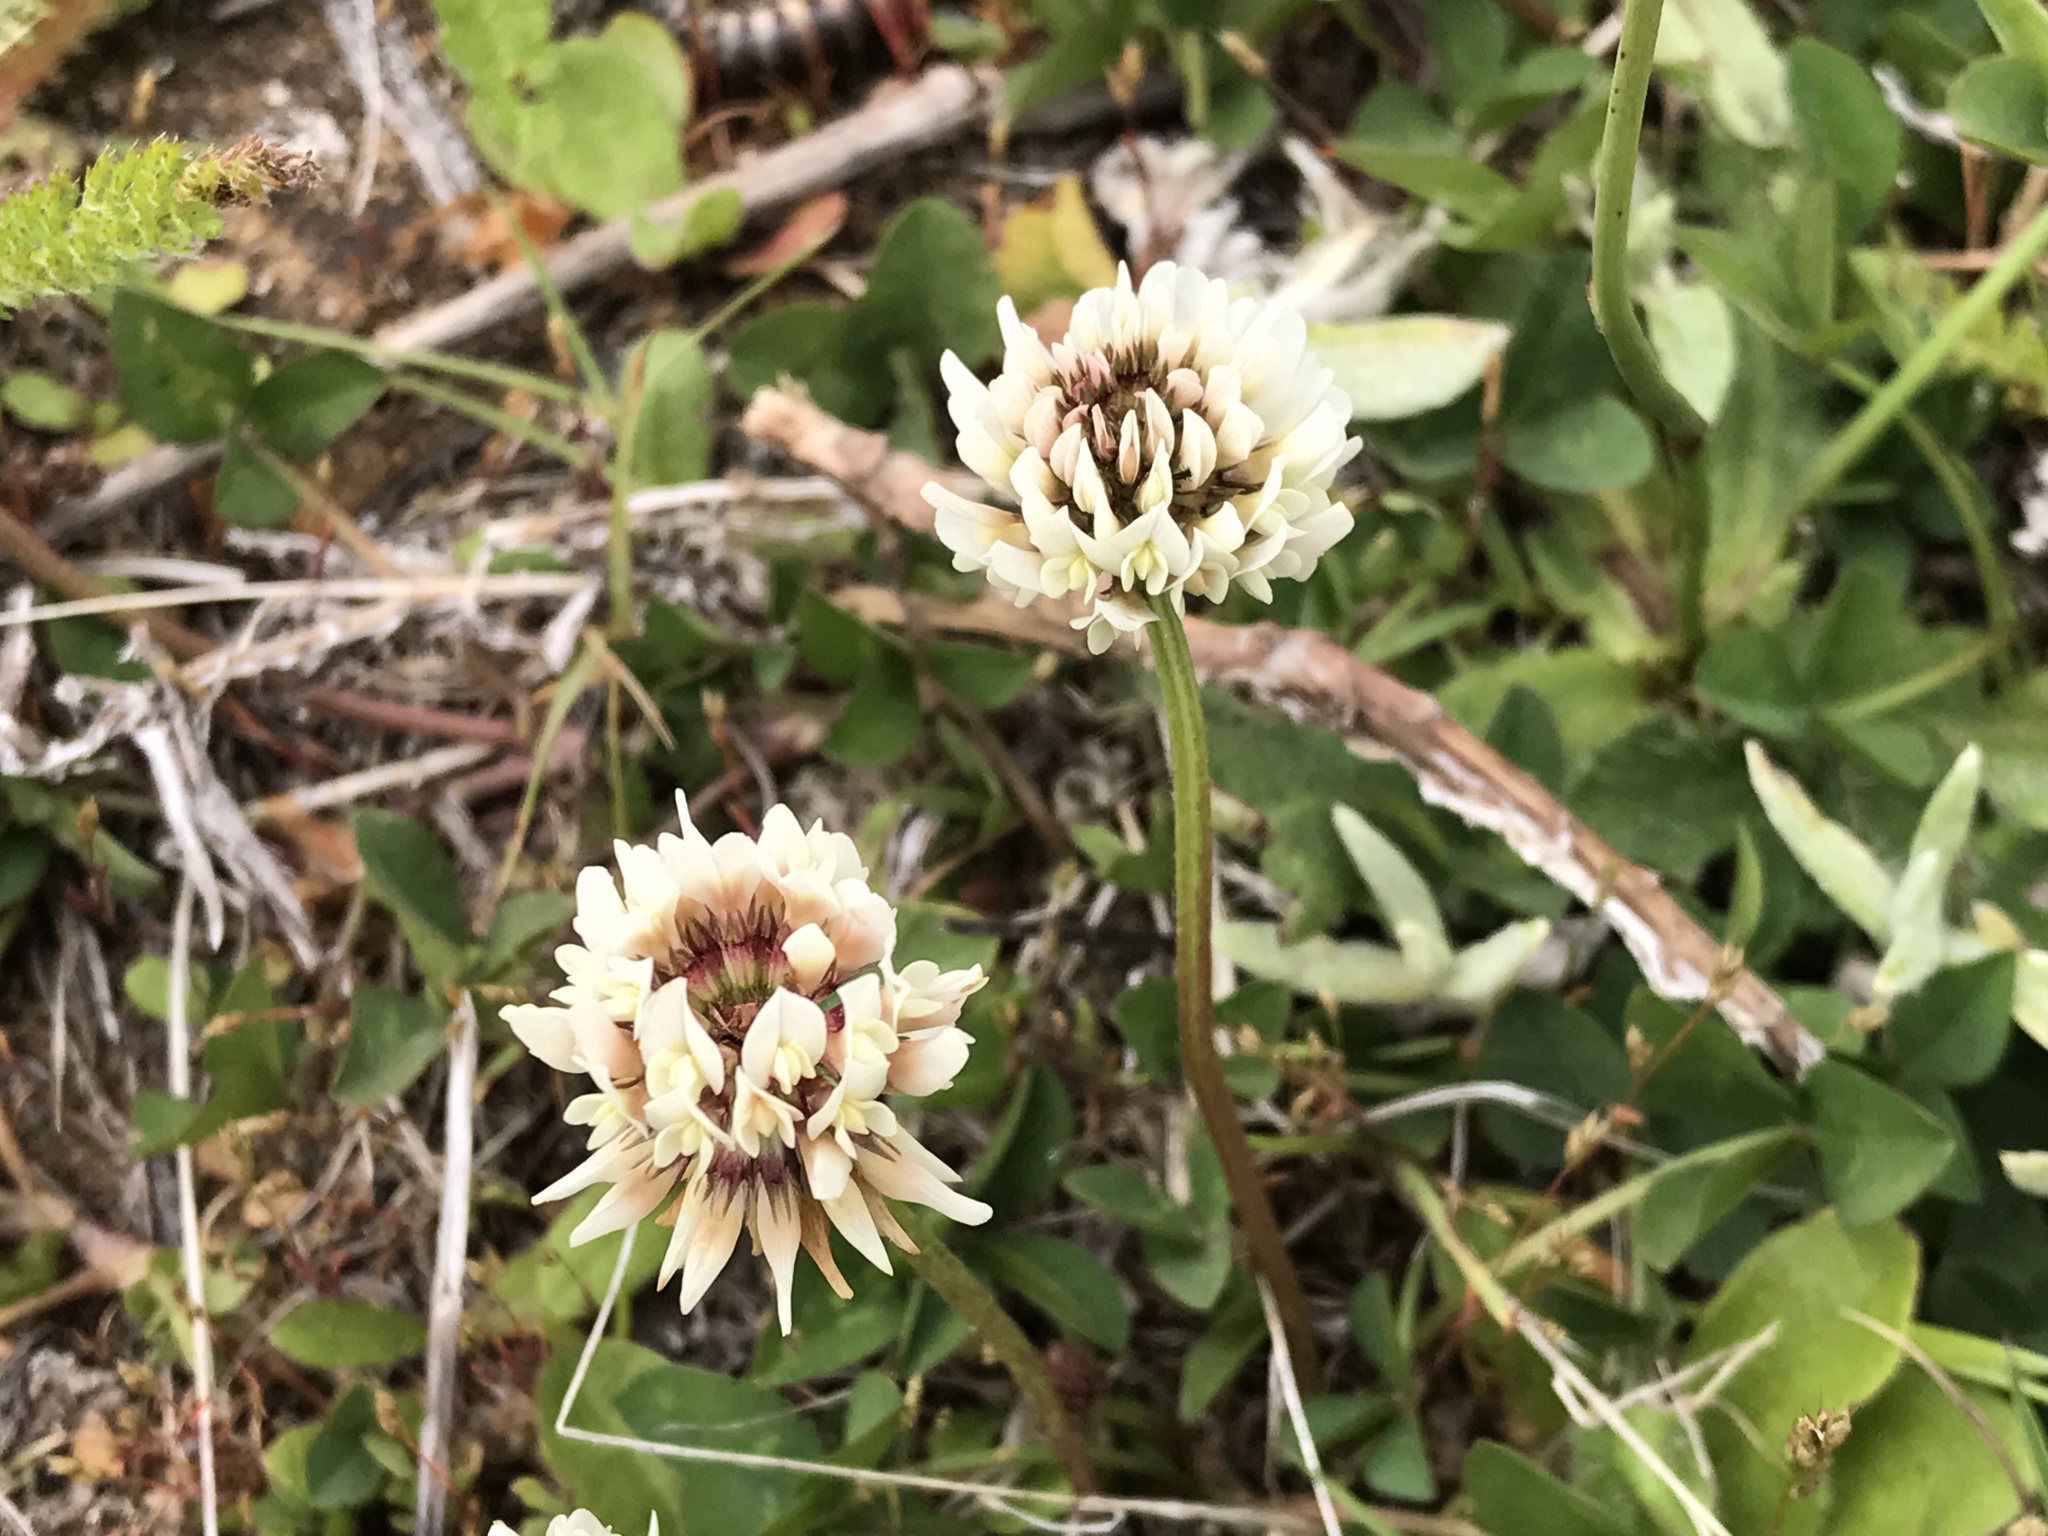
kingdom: Plantae
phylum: Tracheophyta
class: Magnoliopsida
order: Fabales
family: Fabaceae
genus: Trifolium
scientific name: Trifolium repens
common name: White clover
